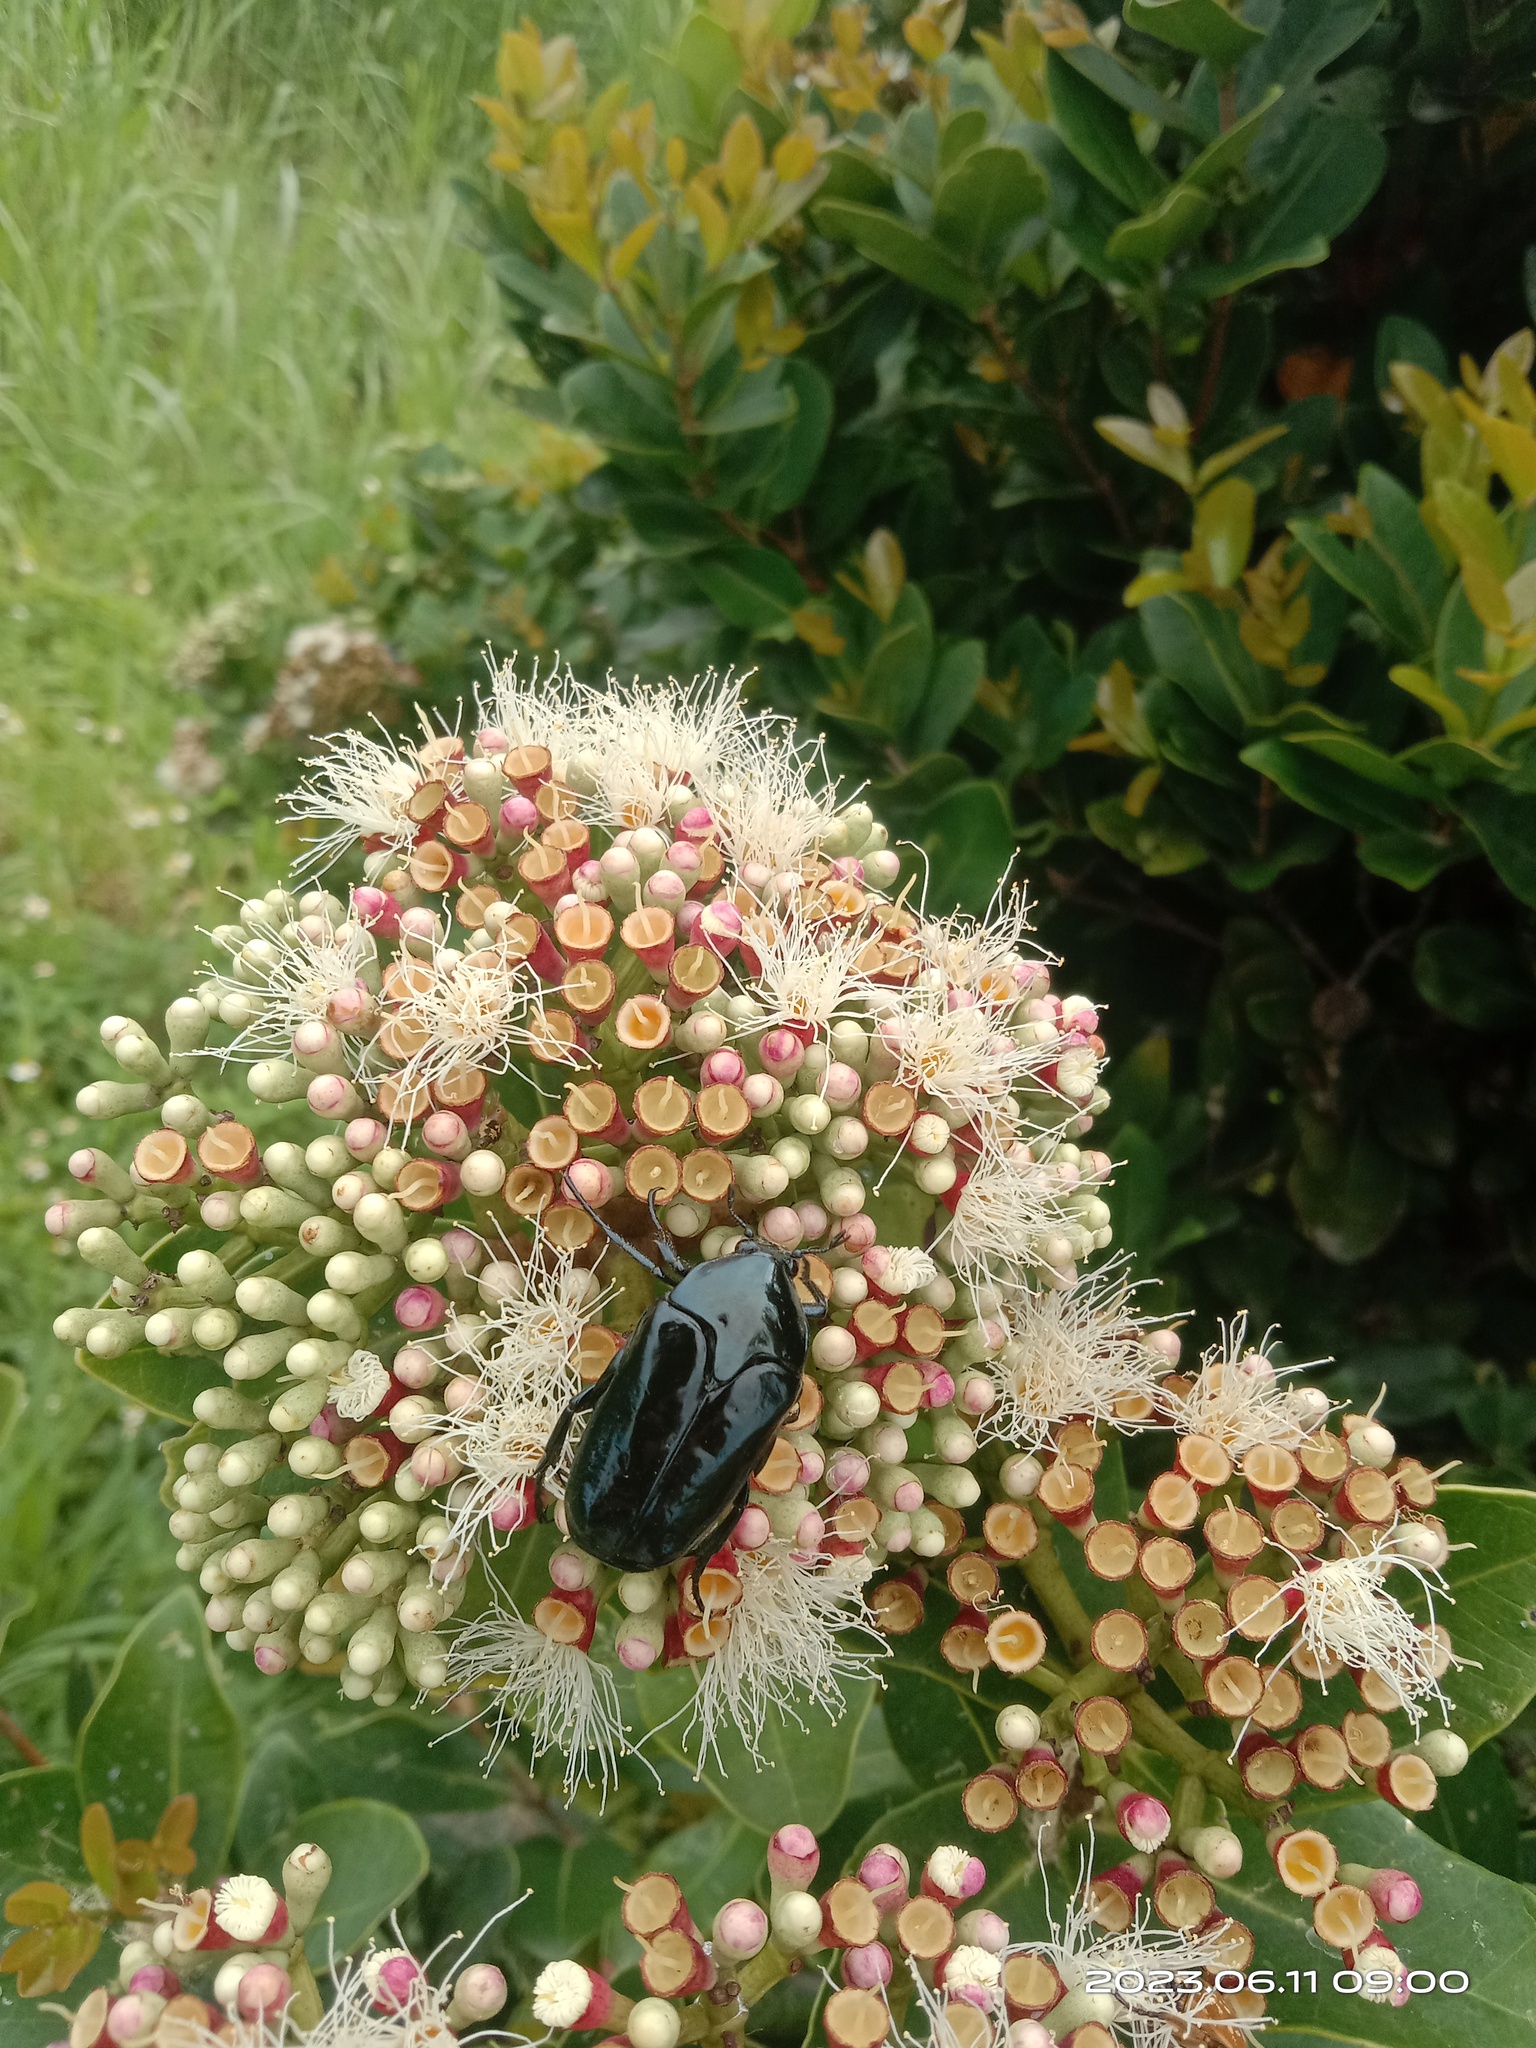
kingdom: Animalia
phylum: Arthropoda
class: Insecta
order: Coleoptera
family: Scarabaeidae
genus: Macronota
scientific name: Macronota shangaicus
